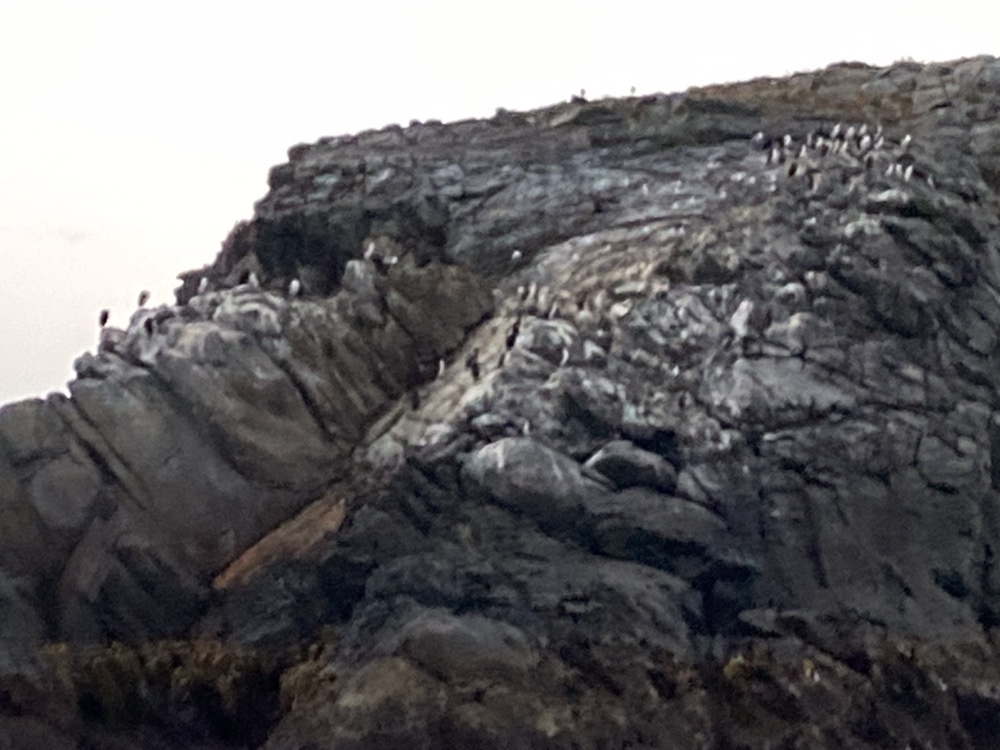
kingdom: Animalia
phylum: Chordata
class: Aves
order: Suliformes
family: Phalacrocoracidae
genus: Leucocarbo
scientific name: Leucocarbo chalconotus
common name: Stewart shag
